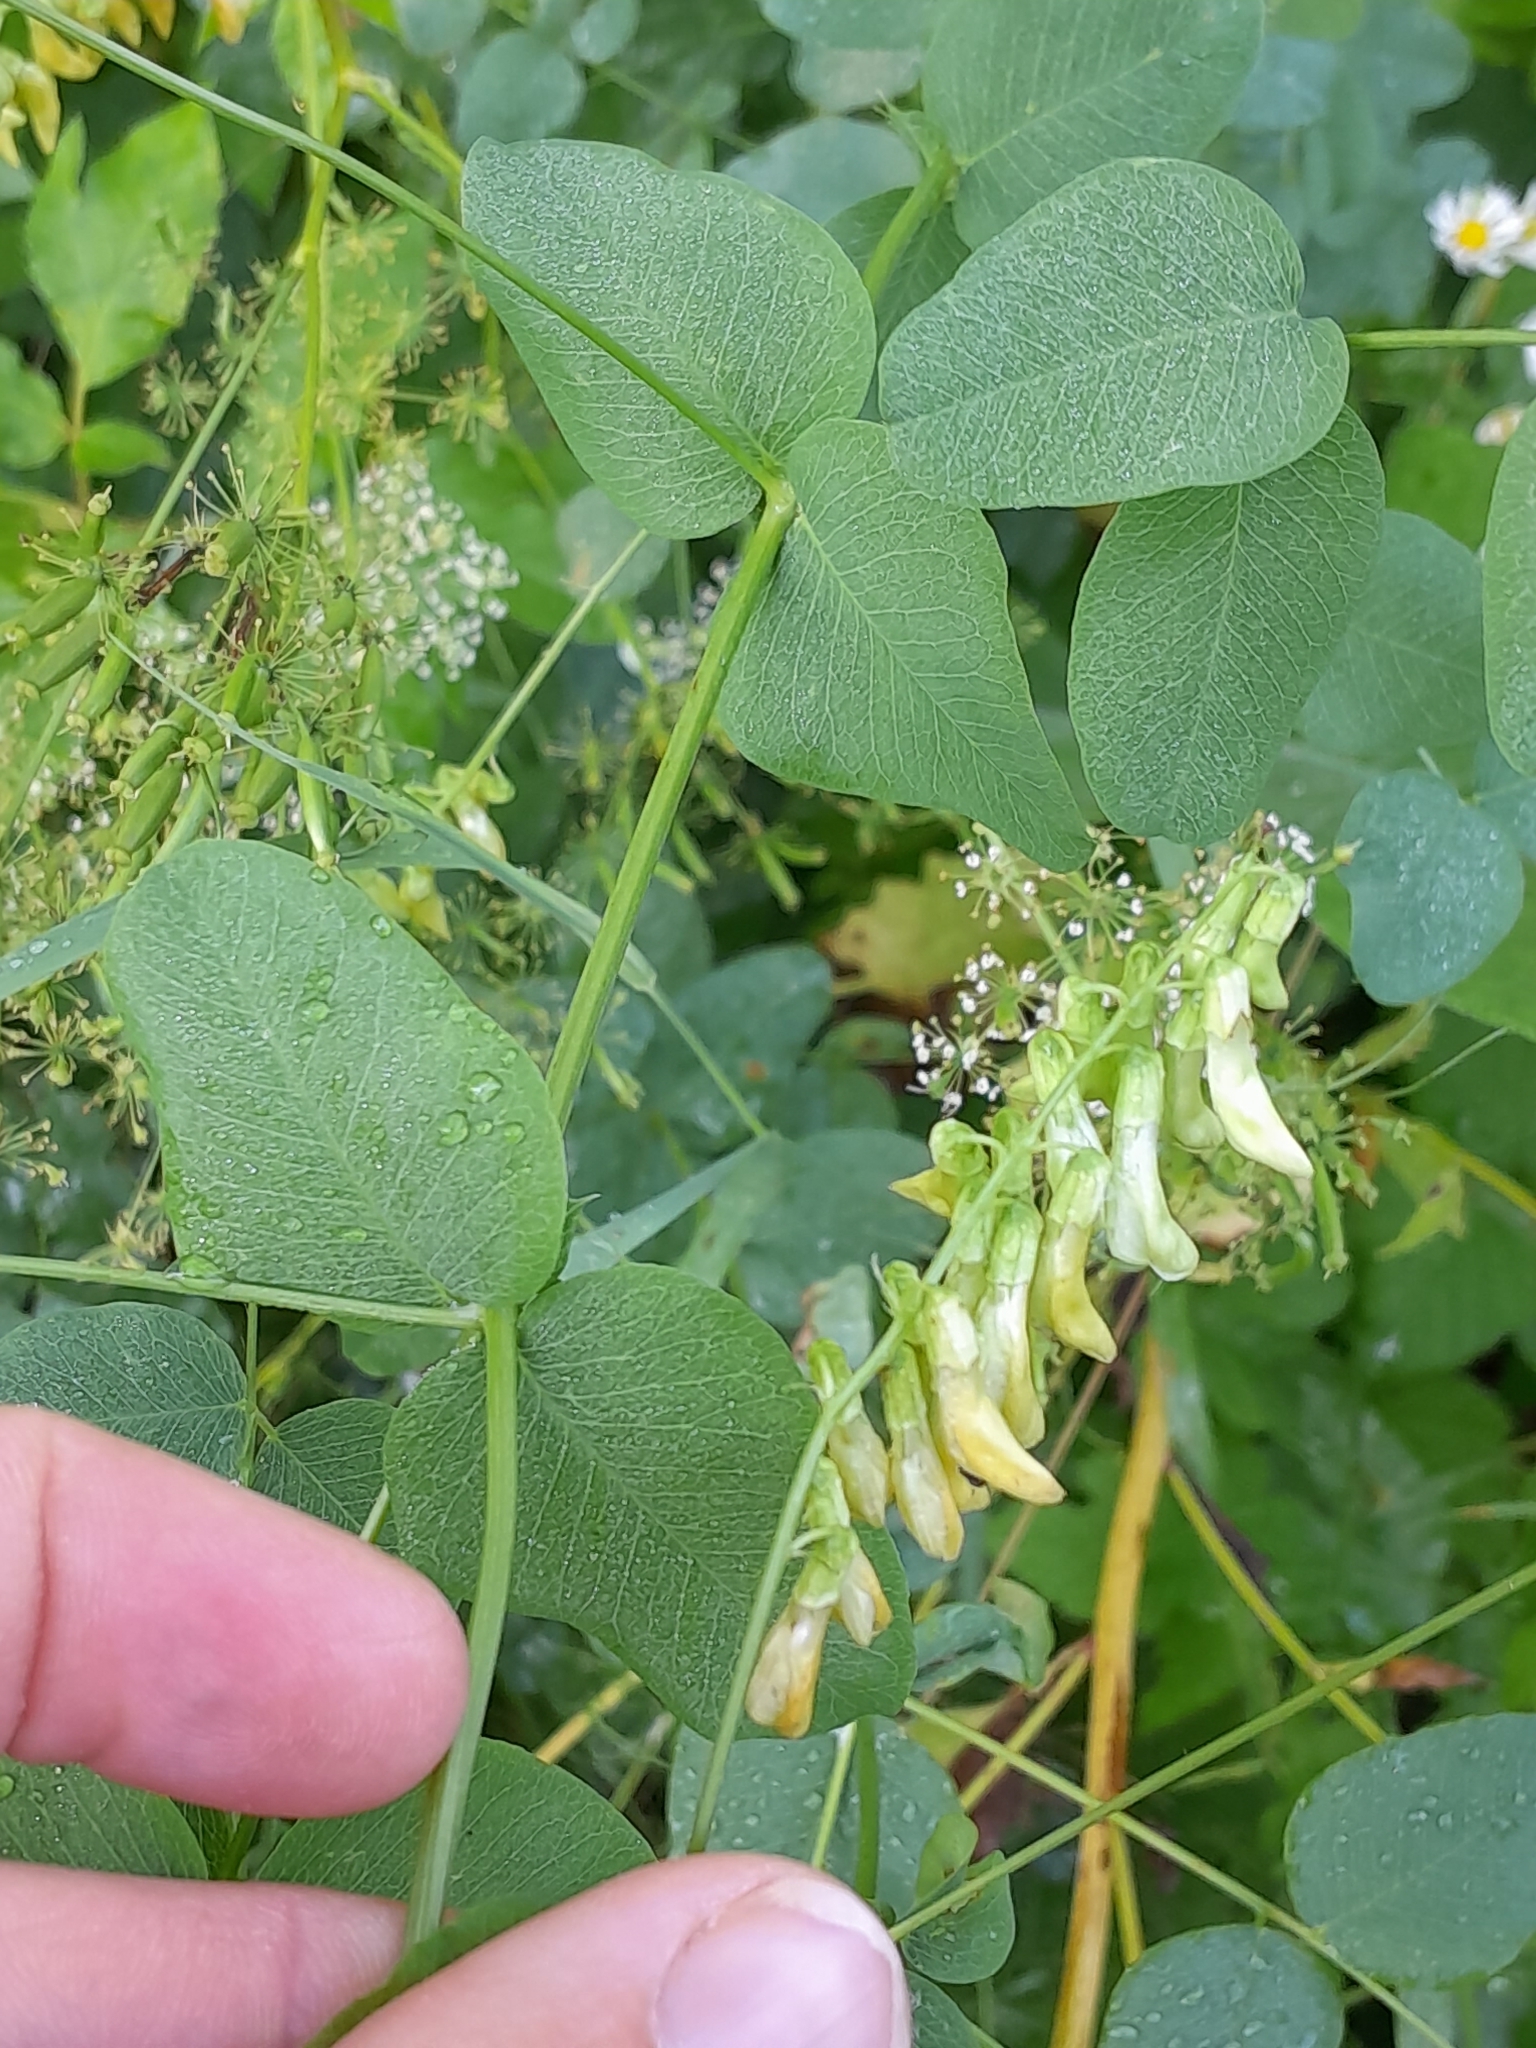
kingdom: Plantae
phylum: Tracheophyta
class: Magnoliopsida
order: Fabales
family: Fabaceae
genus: Vicia
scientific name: Vicia pisiformis
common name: Pale-flower vetch
